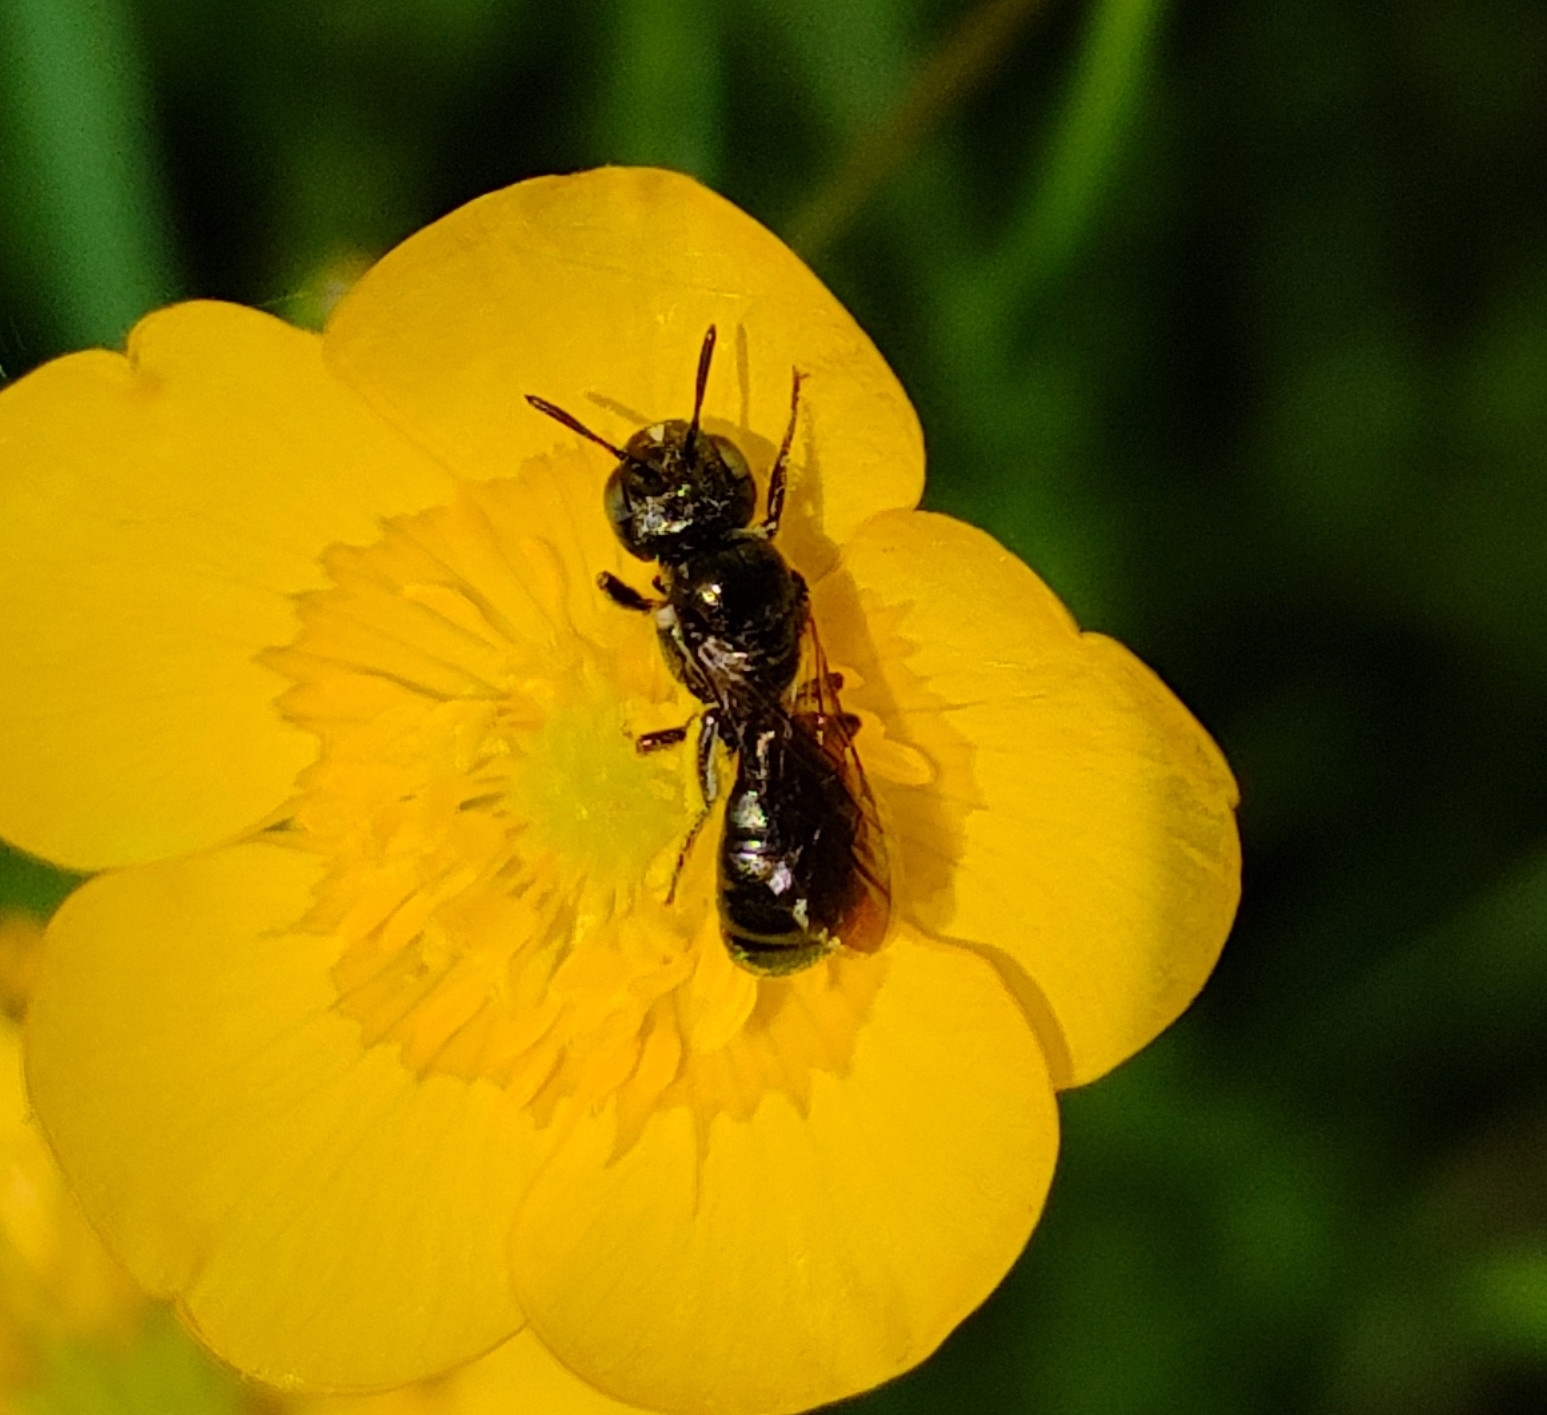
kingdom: Animalia
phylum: Arthropoda
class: Insecta
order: Hymenoptera
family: Apidae
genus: Zadontomerus
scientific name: Zadontomerus
